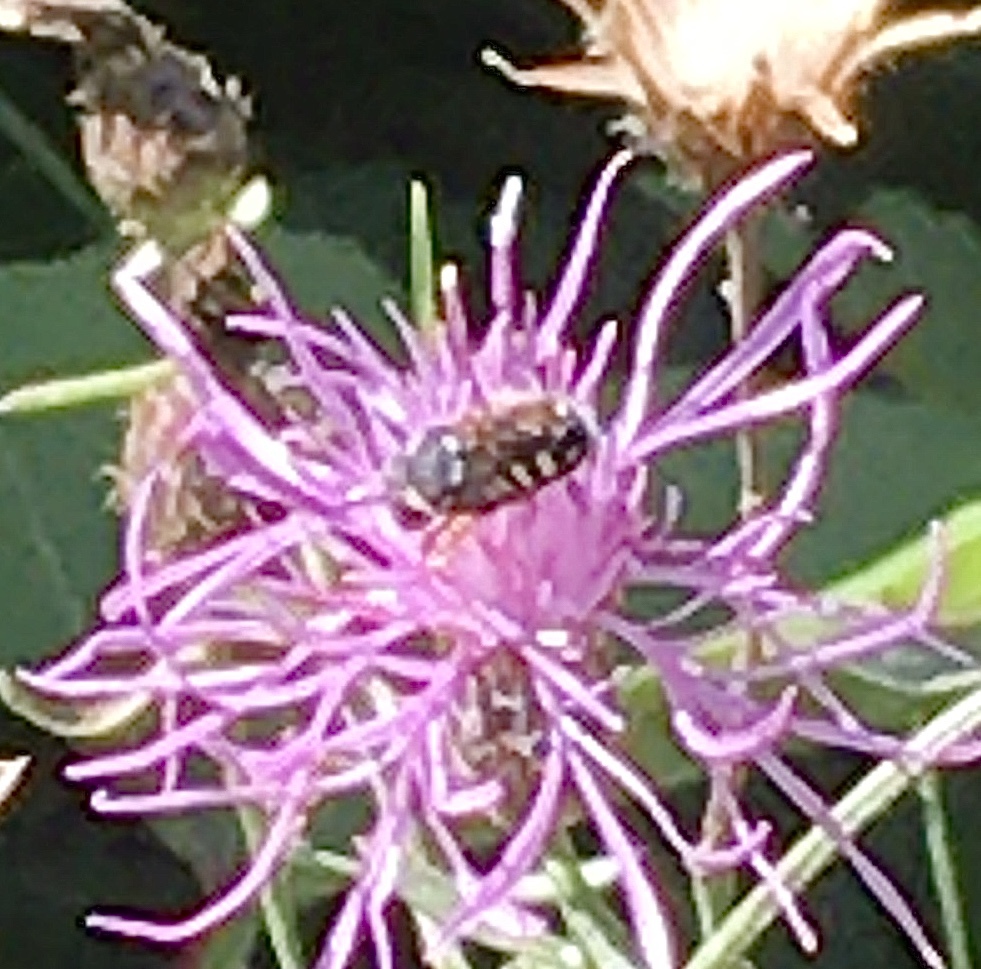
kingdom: Animalia
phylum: Arthropoda
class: Insecta
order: Hymenoptera
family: Megachilidae
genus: Pseudoanthidium
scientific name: Pseudoanthidium nanum
